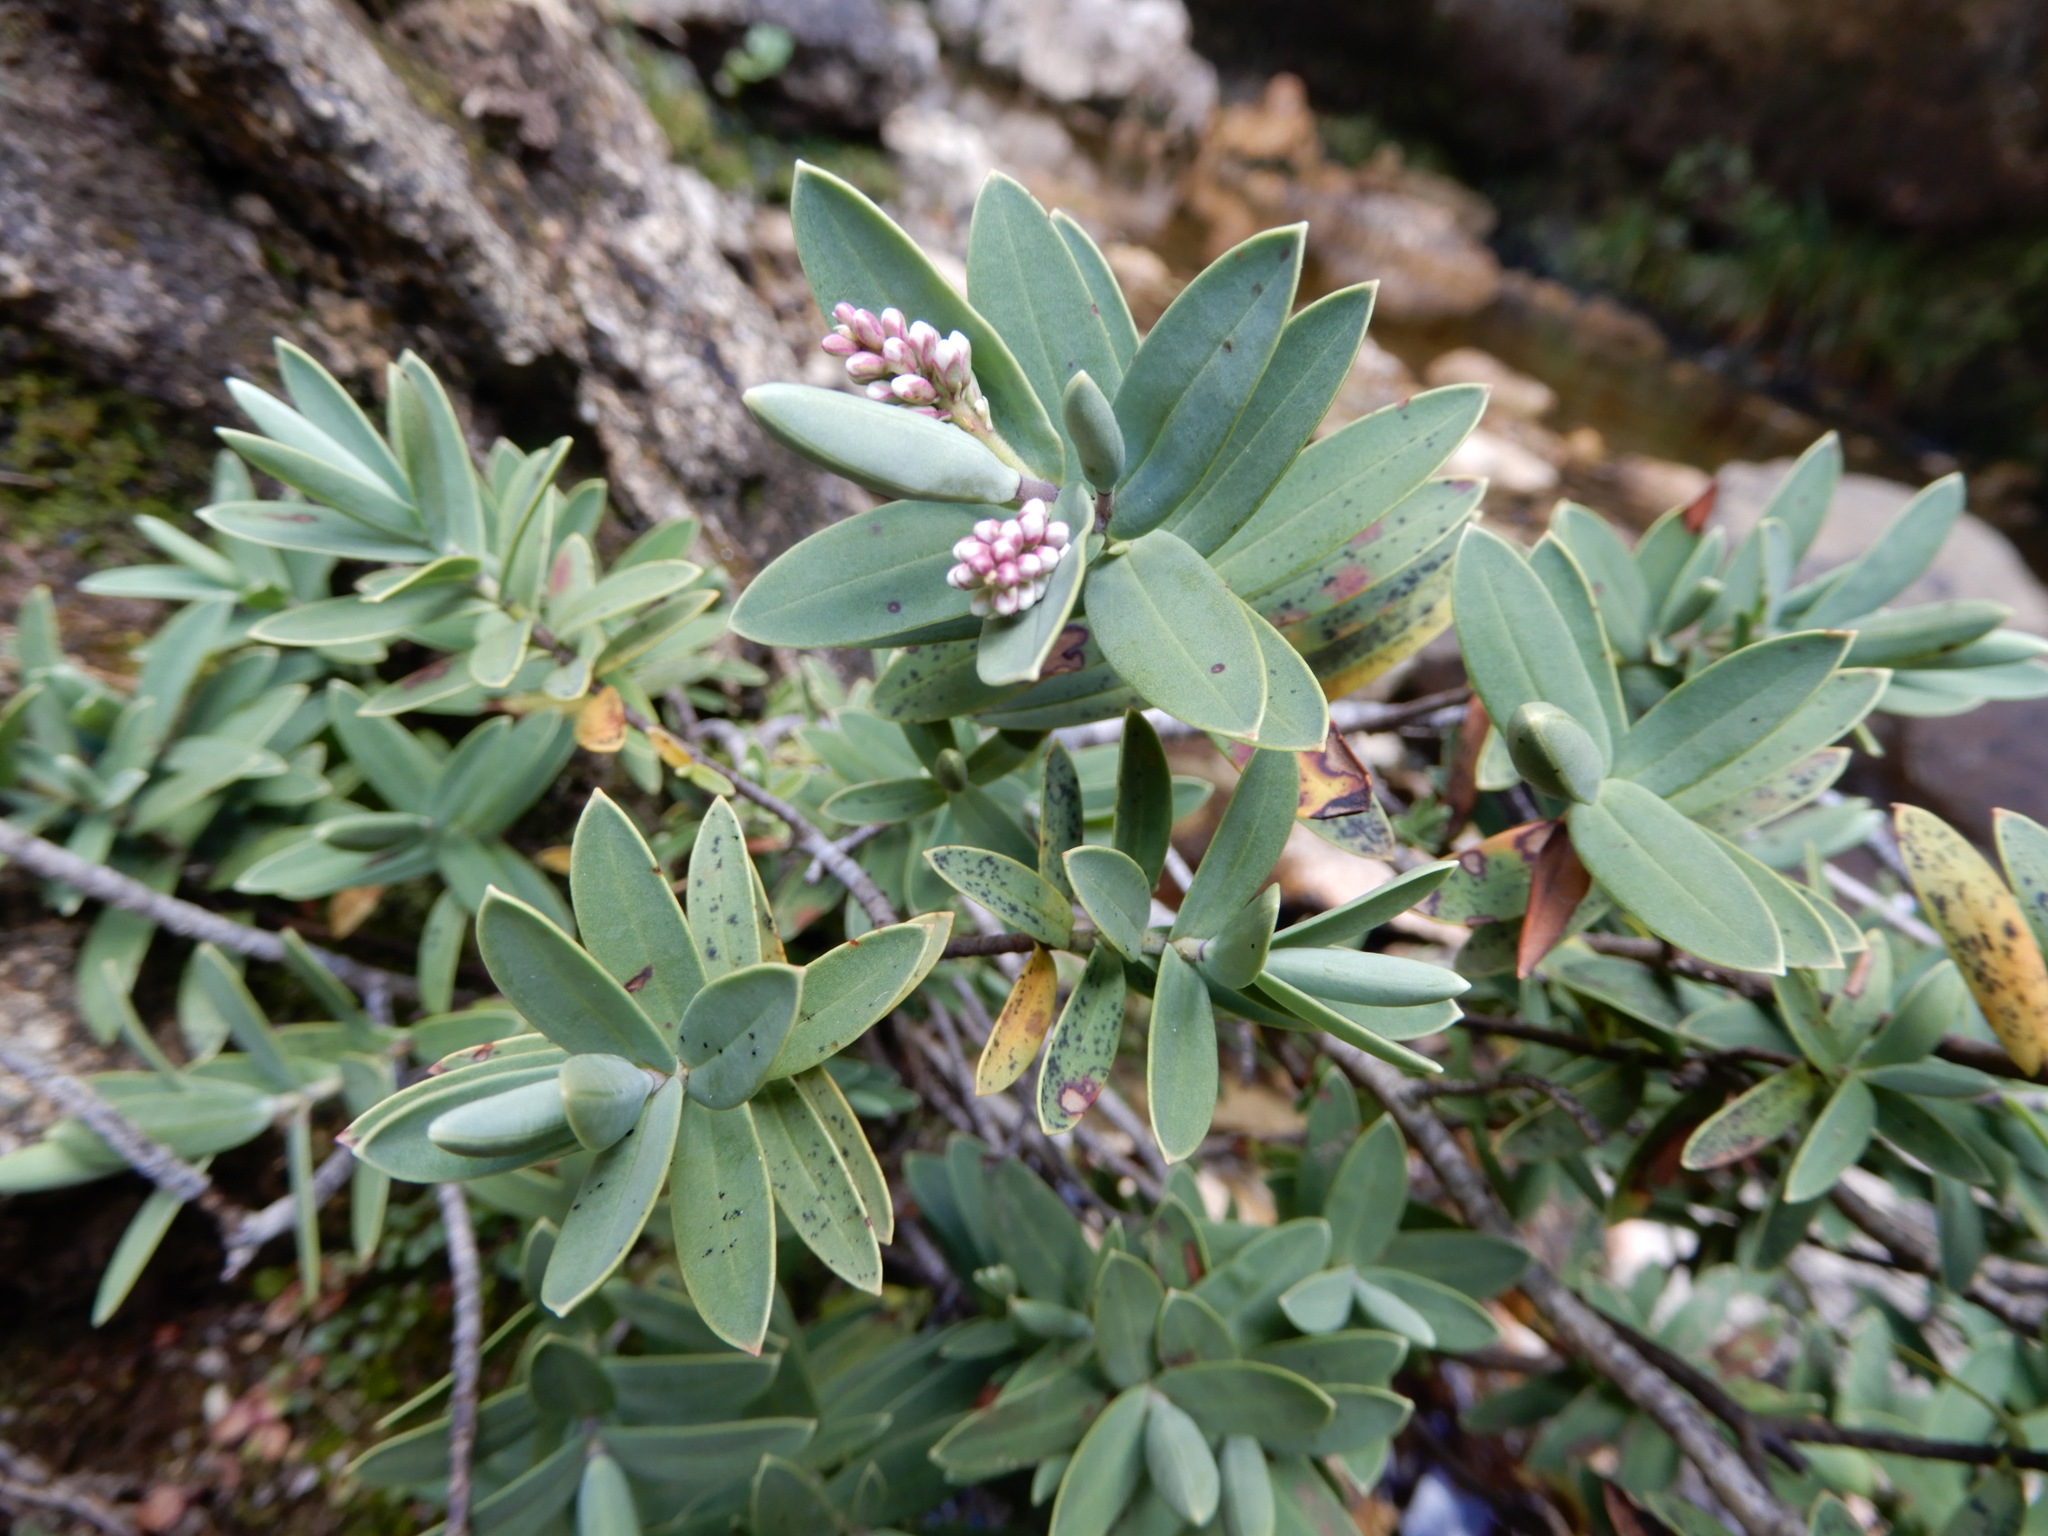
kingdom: Plantae
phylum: Tracheophyta
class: Magnoliopsida
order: Lamiales
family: Plantaginaceae
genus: Veronica
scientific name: Veronica albicans
